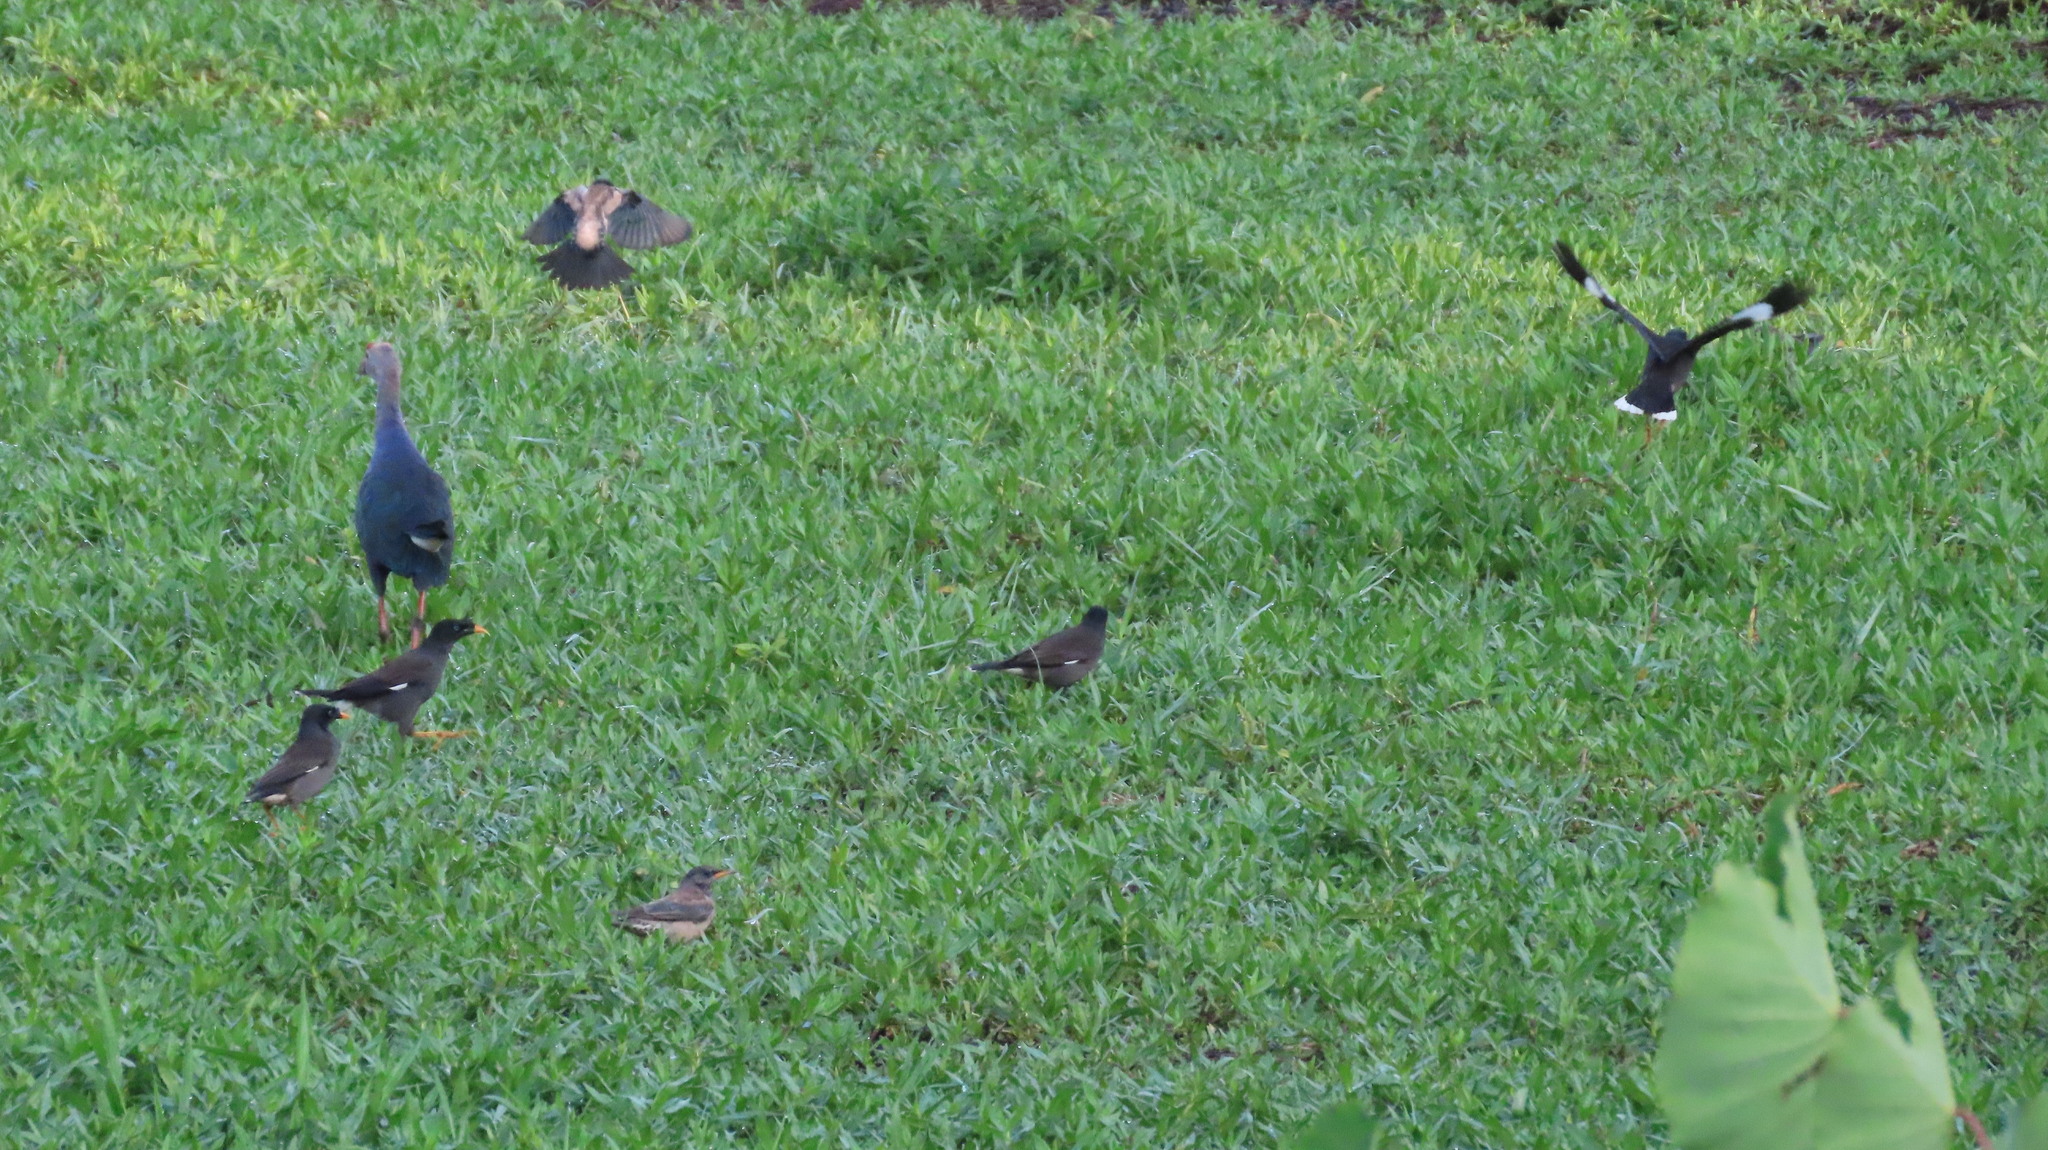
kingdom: Animalia
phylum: Chordata
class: Aves
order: Gruiformes
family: Rallidae
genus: Porphyrio
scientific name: Porphyrio porphyrio
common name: Purple swamphen
